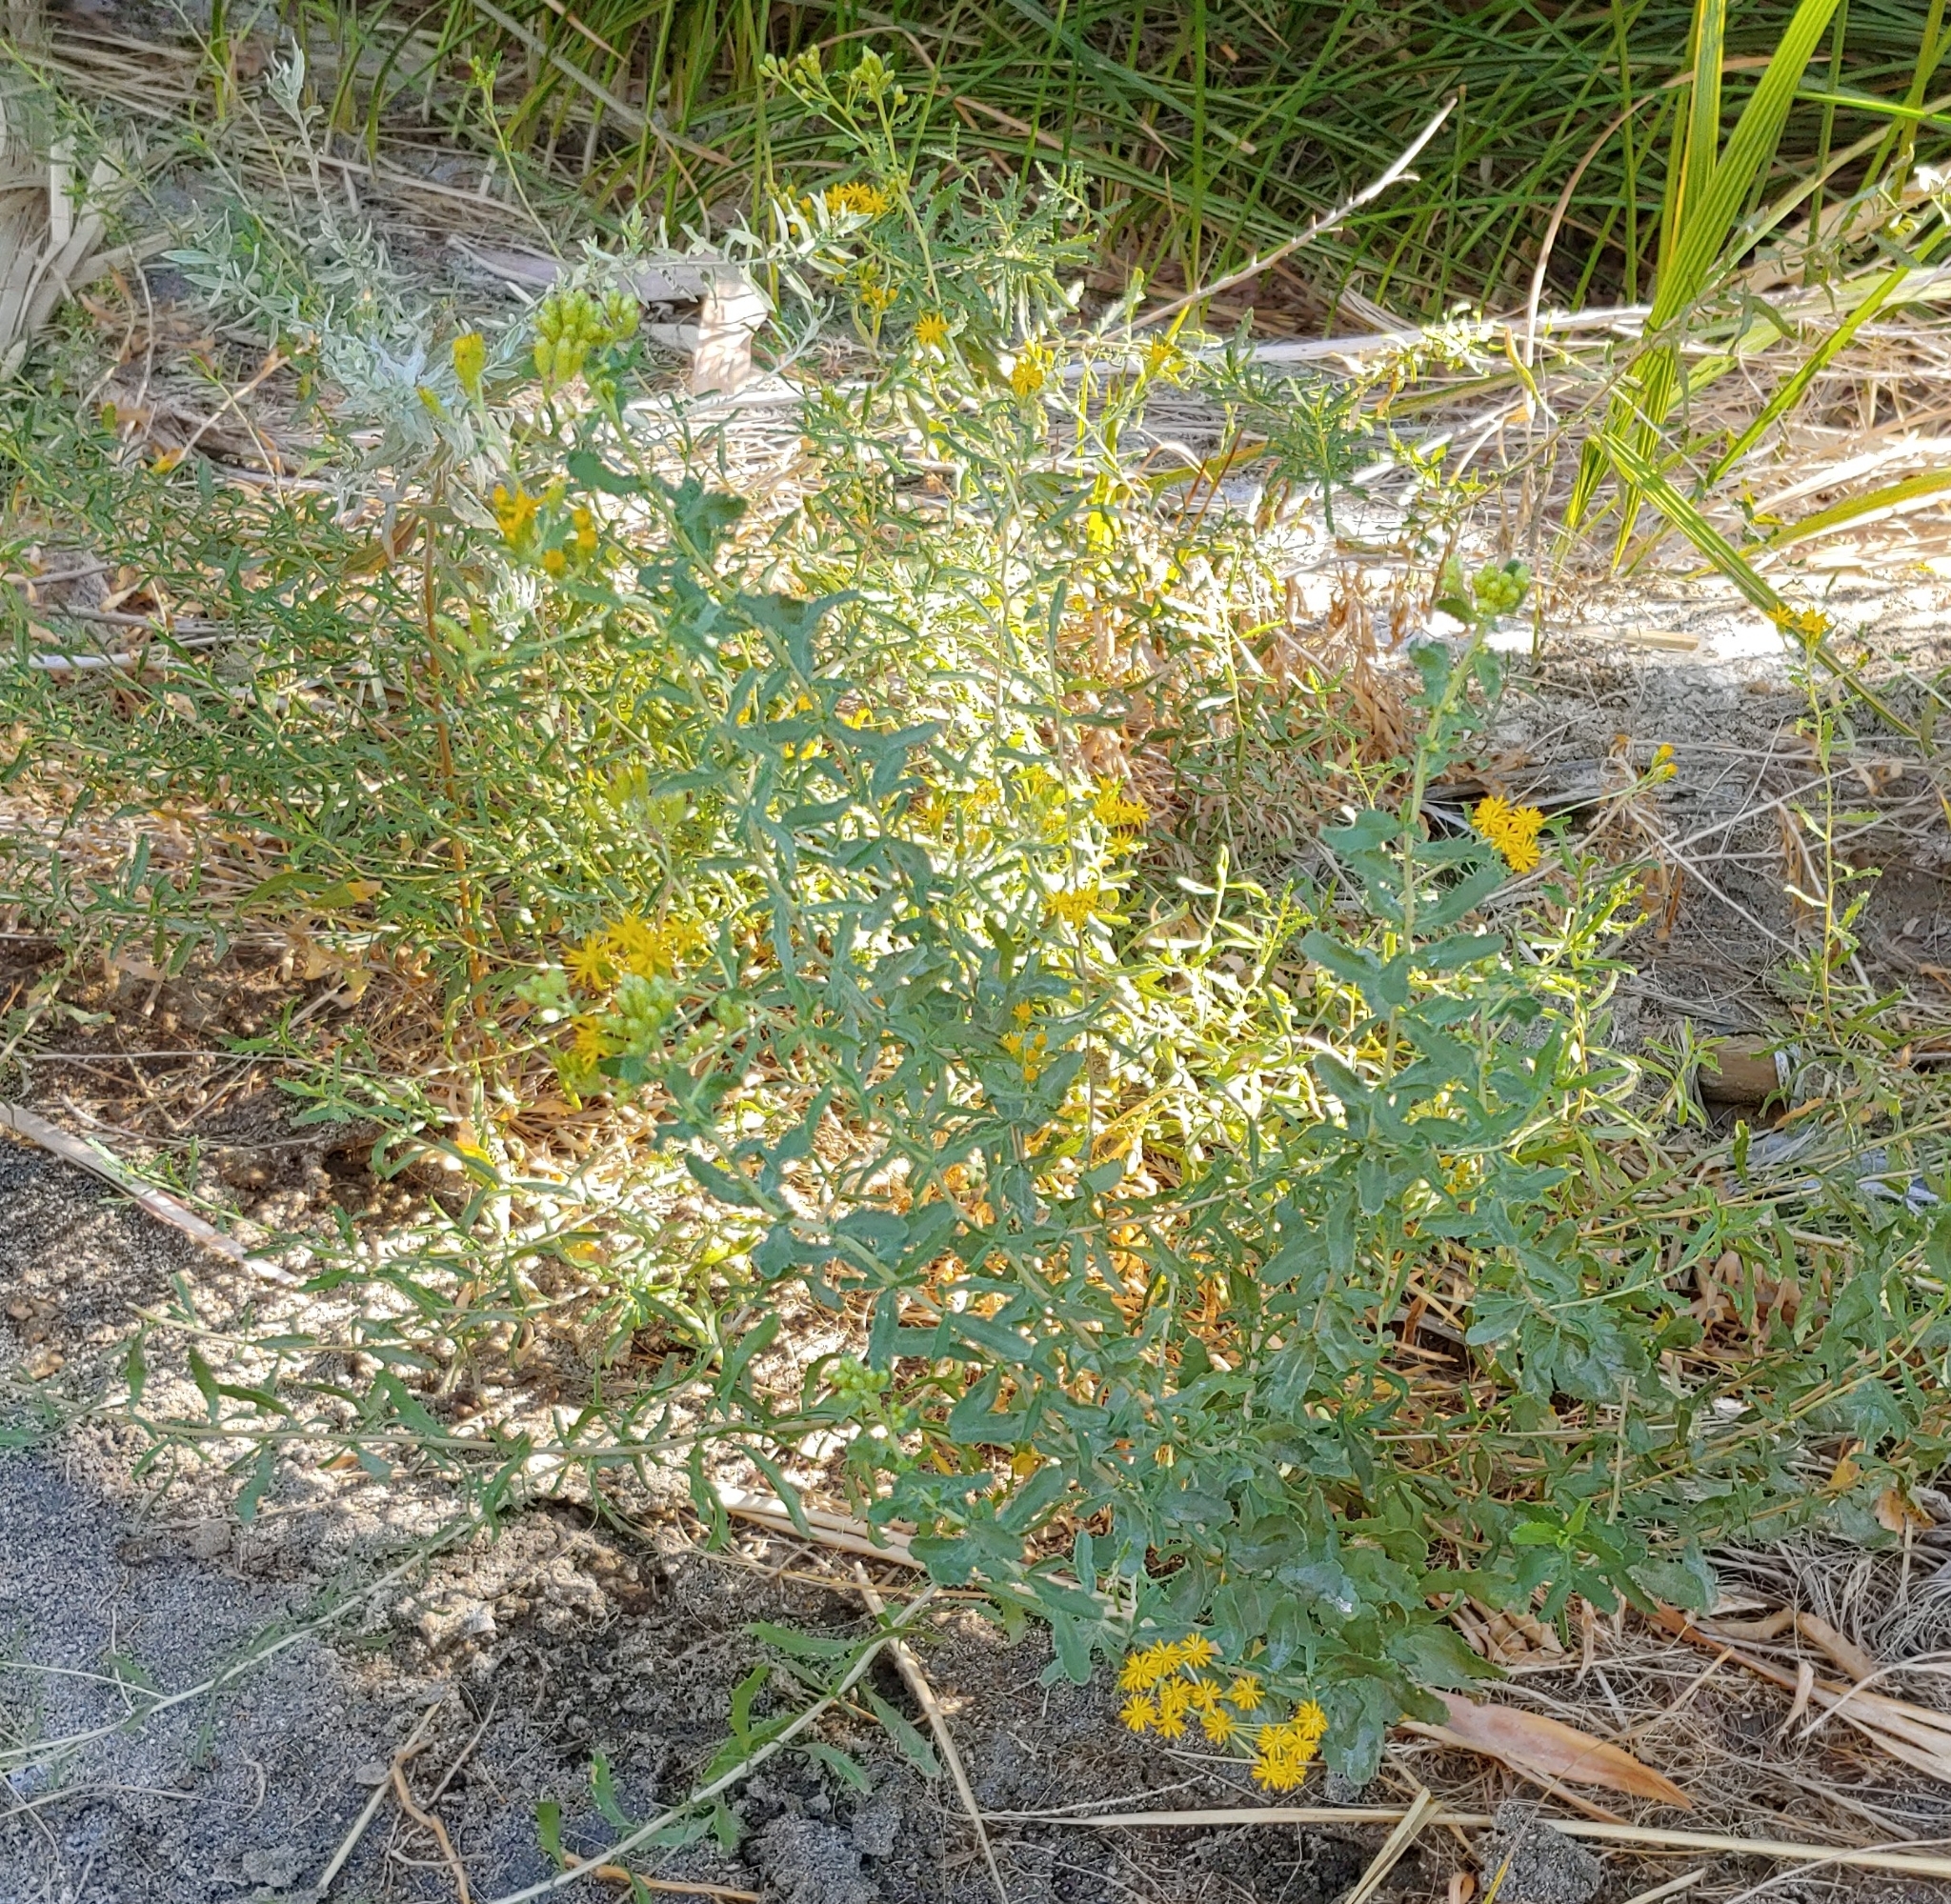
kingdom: Plantae
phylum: Tracheophyta
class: Magnoliopsida
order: Asterales
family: Asteraceae
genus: Isocoma
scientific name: Isocoma acradenia
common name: Alkali jimmyweed
